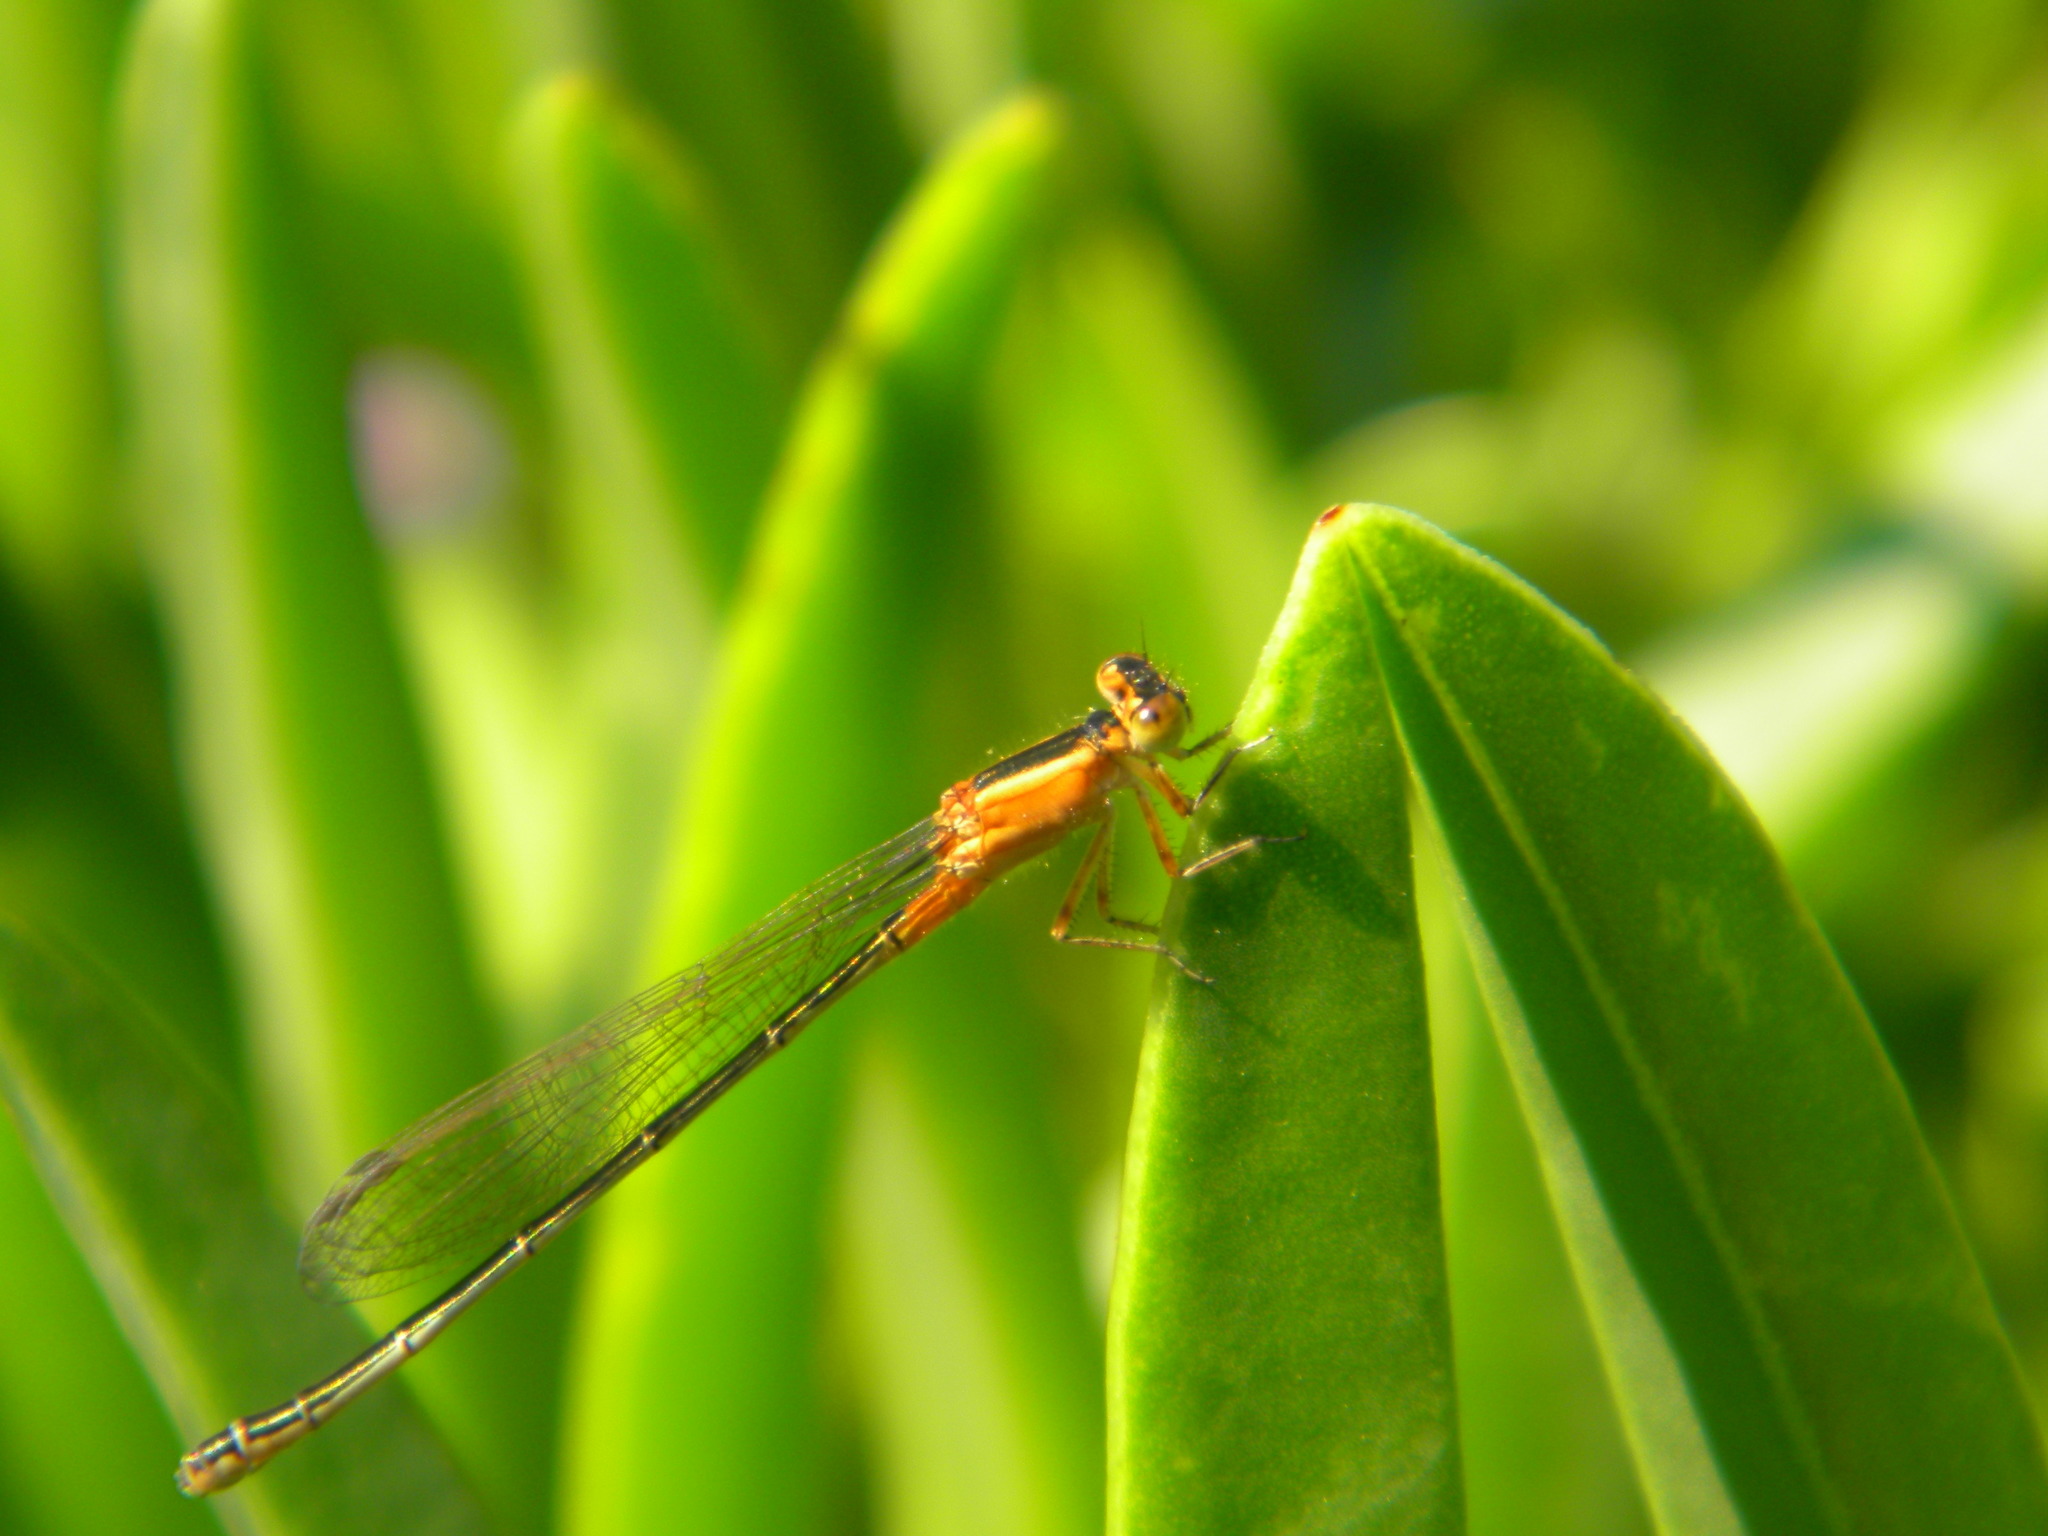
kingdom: Animalia
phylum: Arthropoda
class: Insecta
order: Odonata
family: Coenagrionidae
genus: Ischnura
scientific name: Ischnura senegalensis
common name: Tropical bluetail
